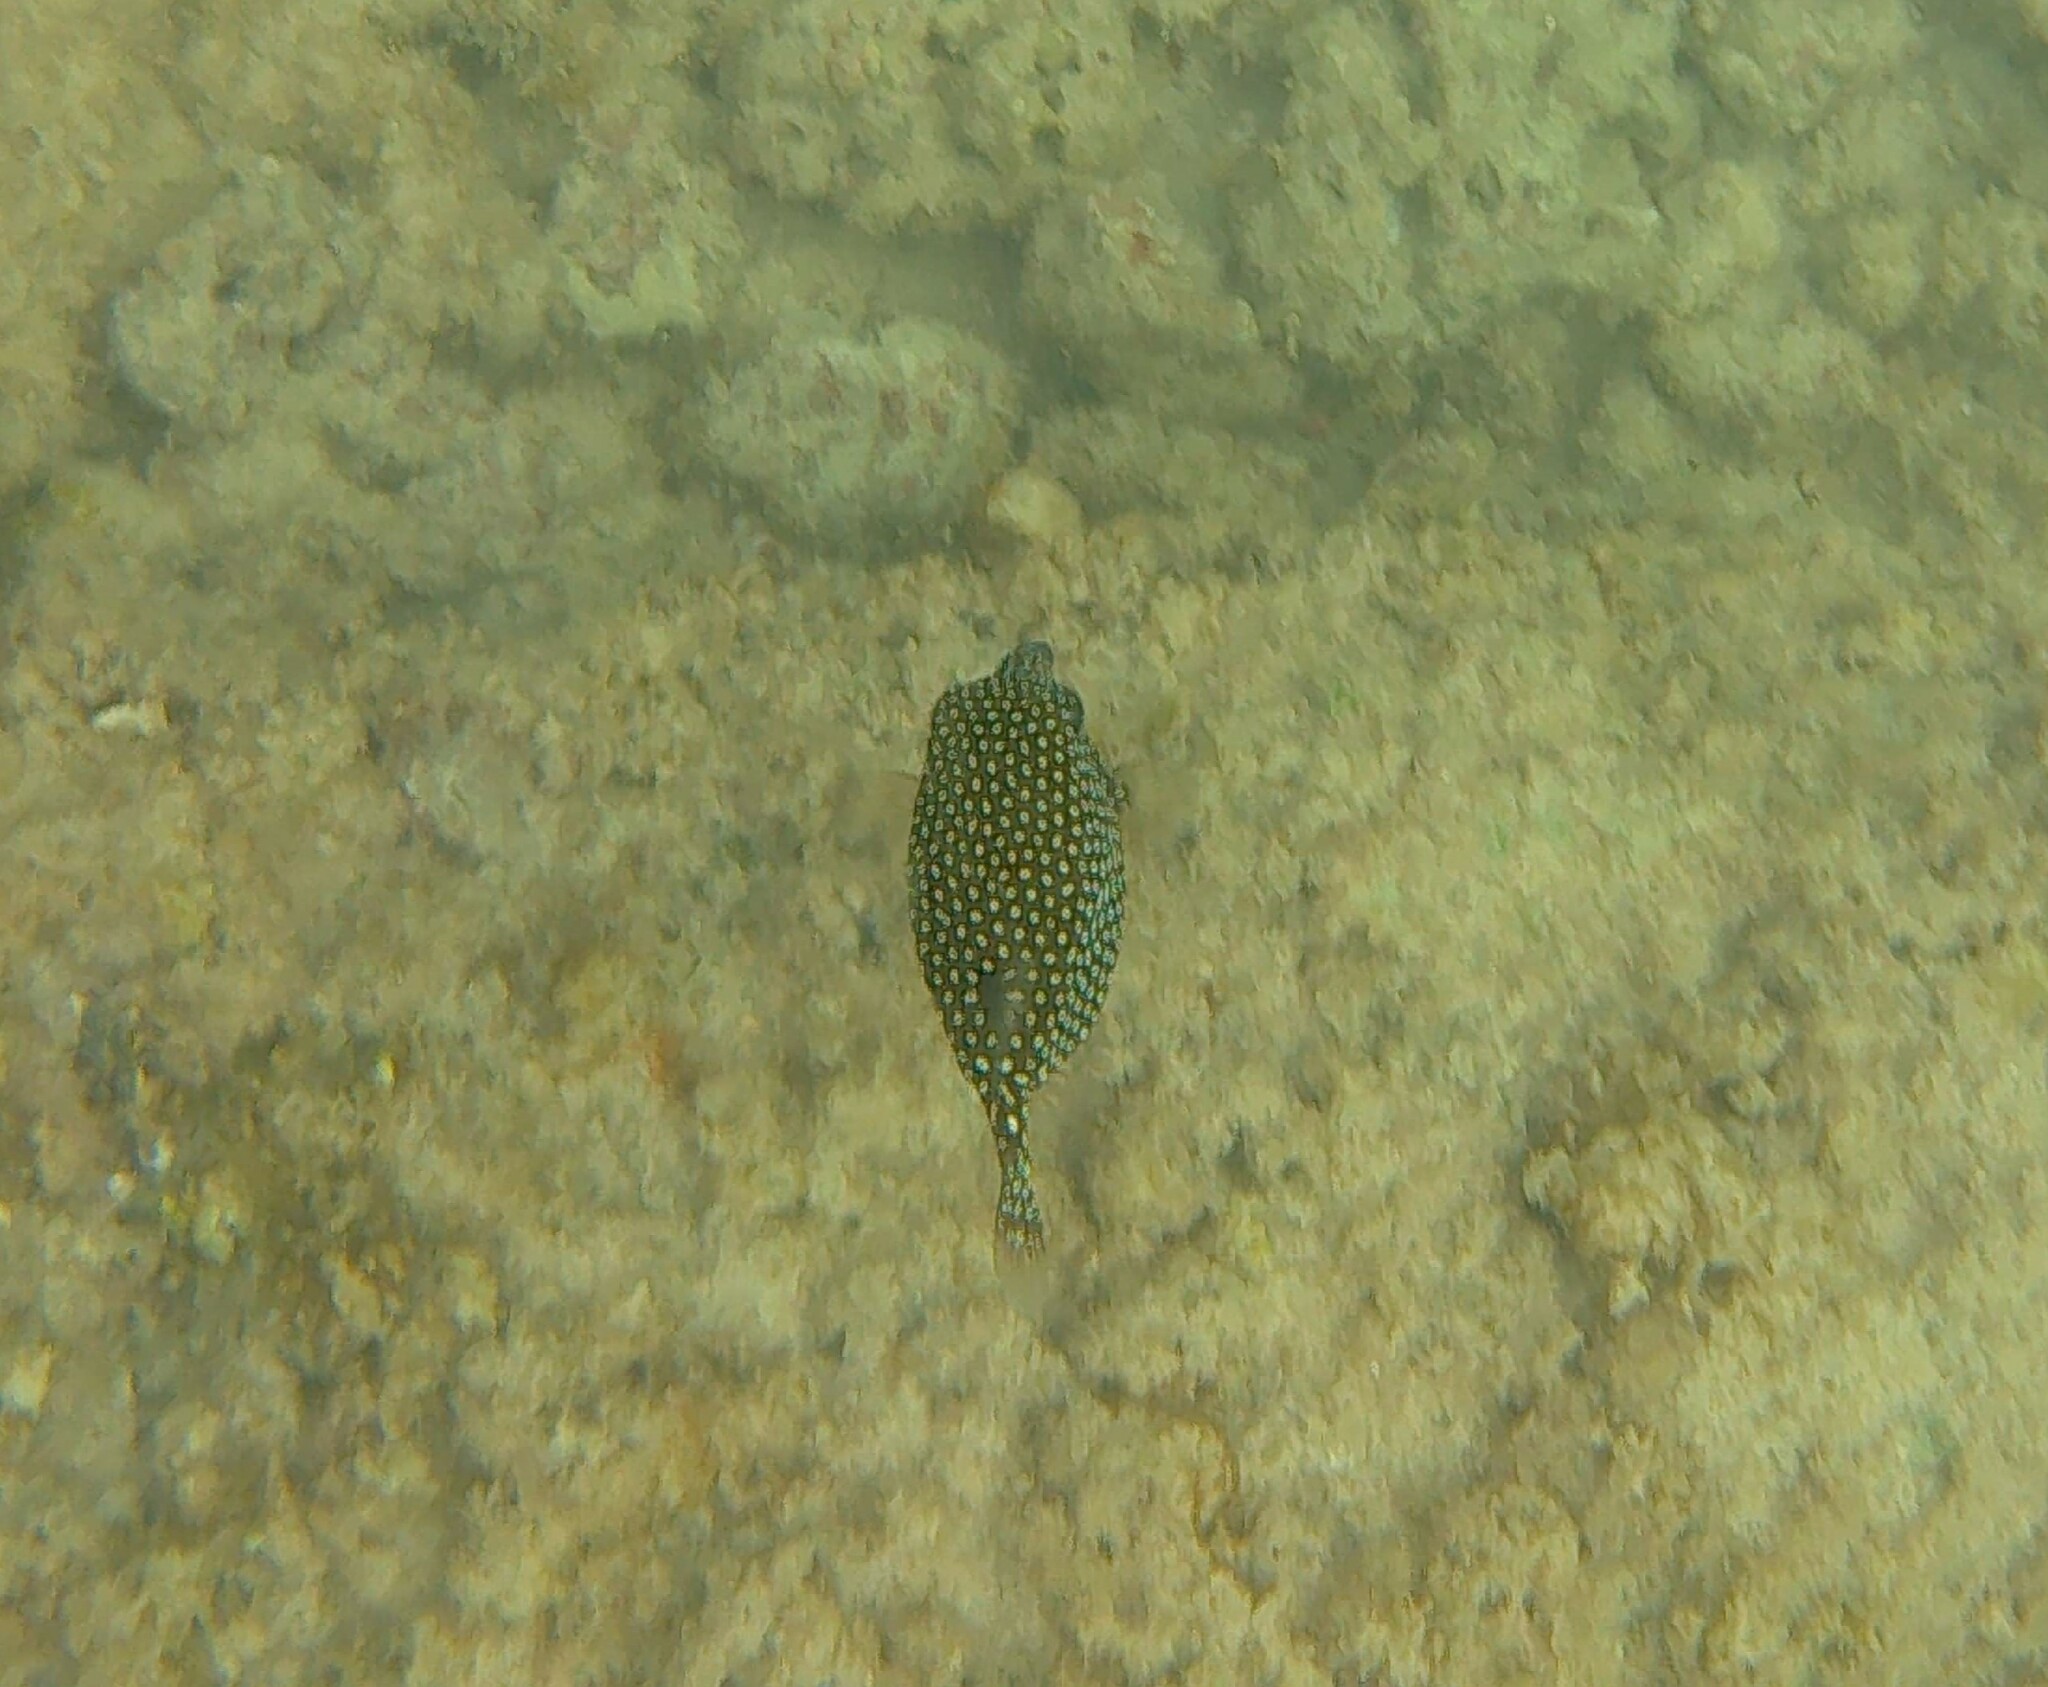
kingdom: Animalia
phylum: Chordata
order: Tetraodontiformes
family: Ostraciidae
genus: Ostracion
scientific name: Ostracion meleagris
